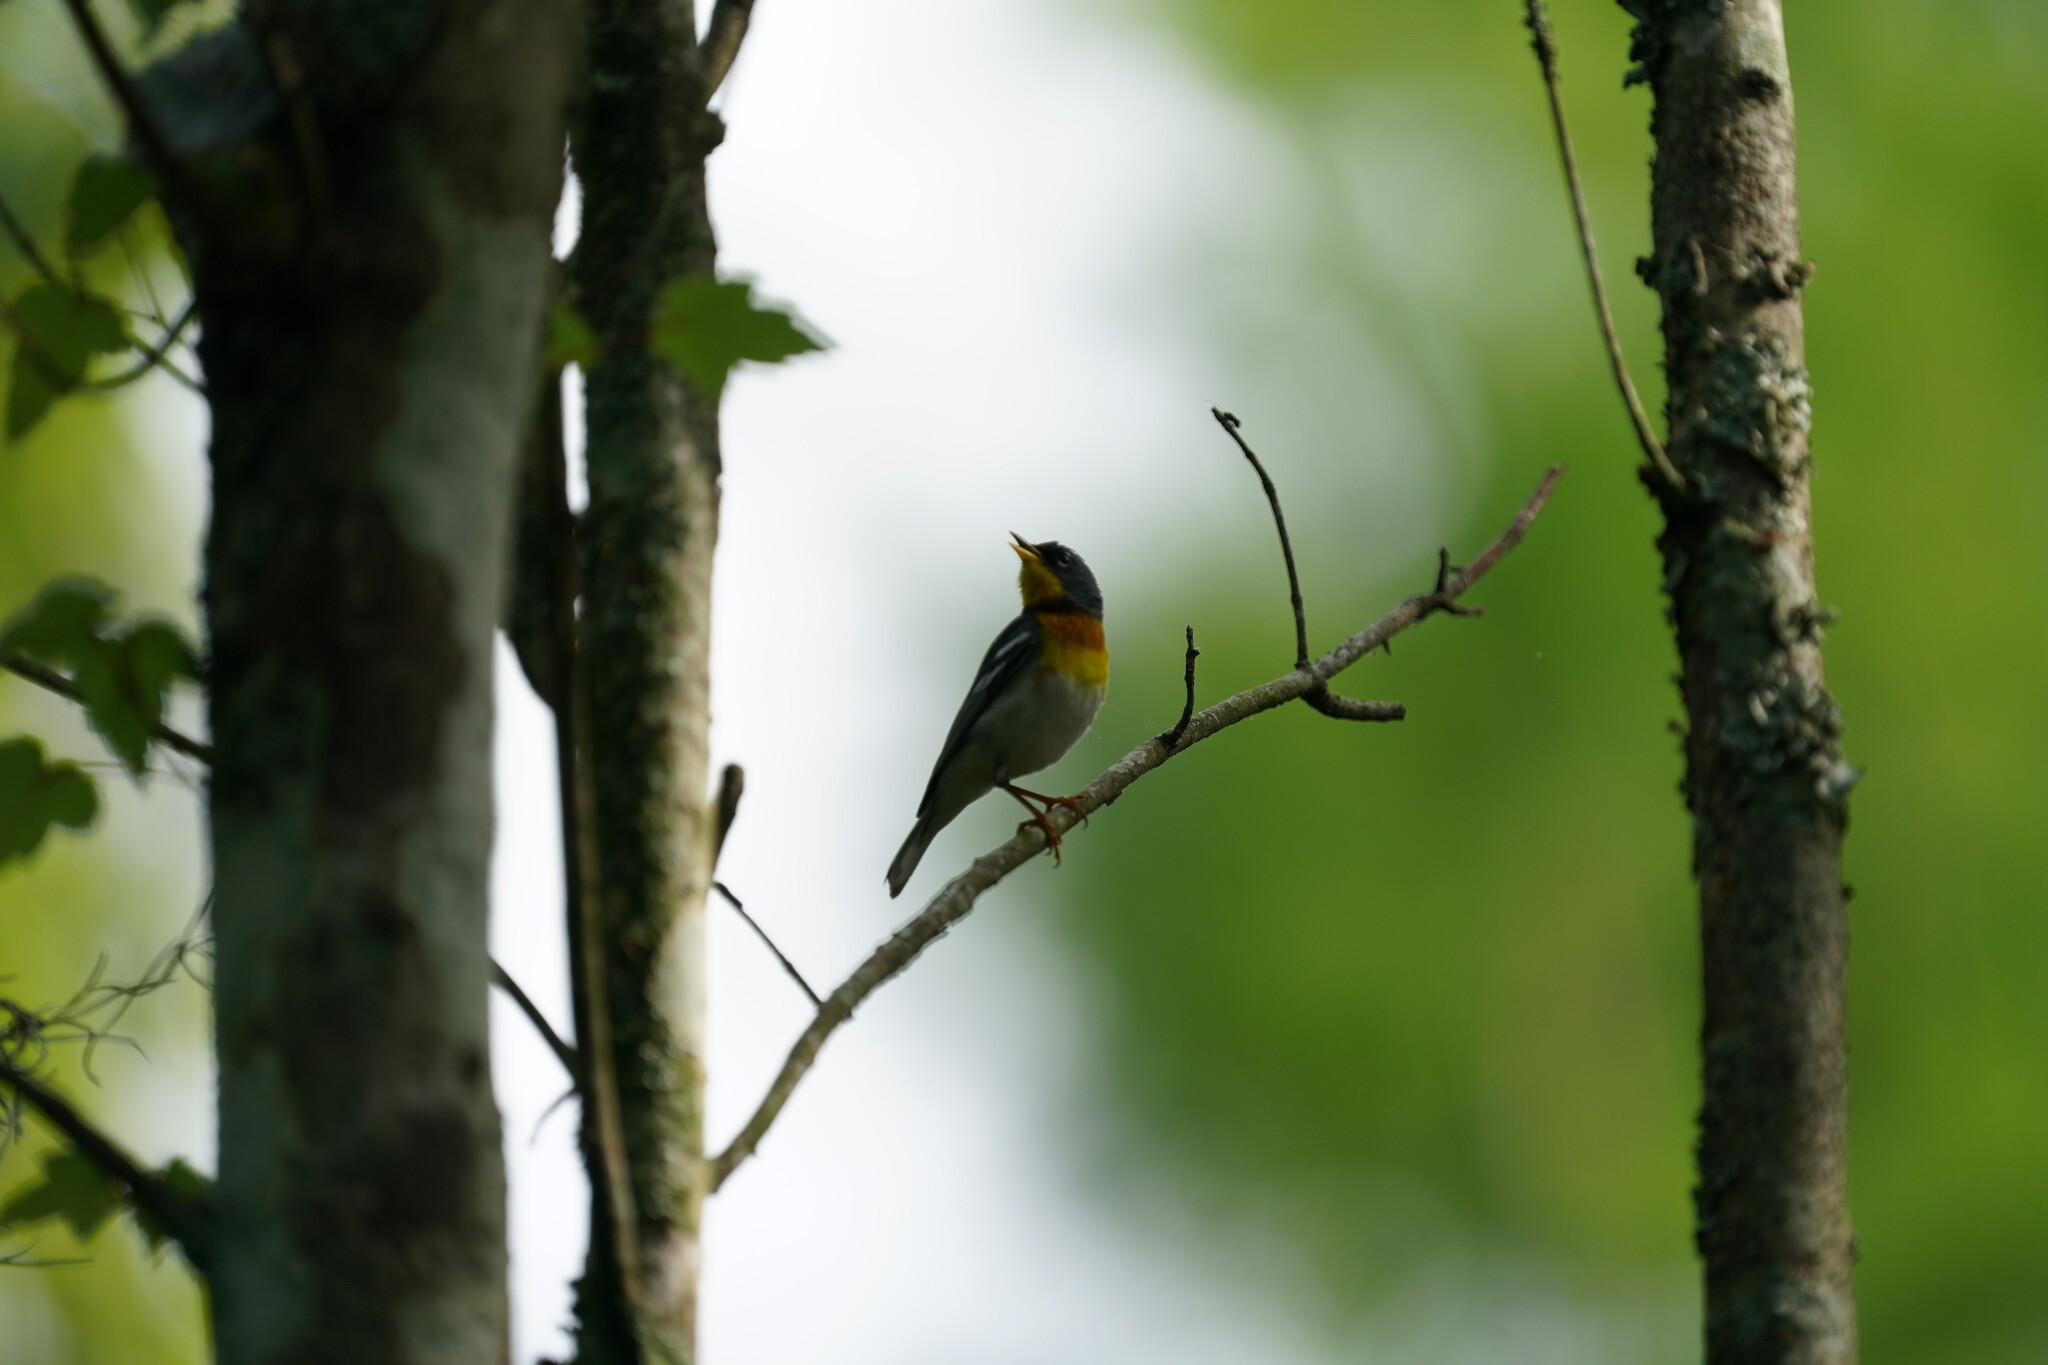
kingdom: Animalia
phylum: Chordata
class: Aves
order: Passeriformes
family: Parulidae
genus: Setophaga
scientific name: Setophaga americana
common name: Northern parula
